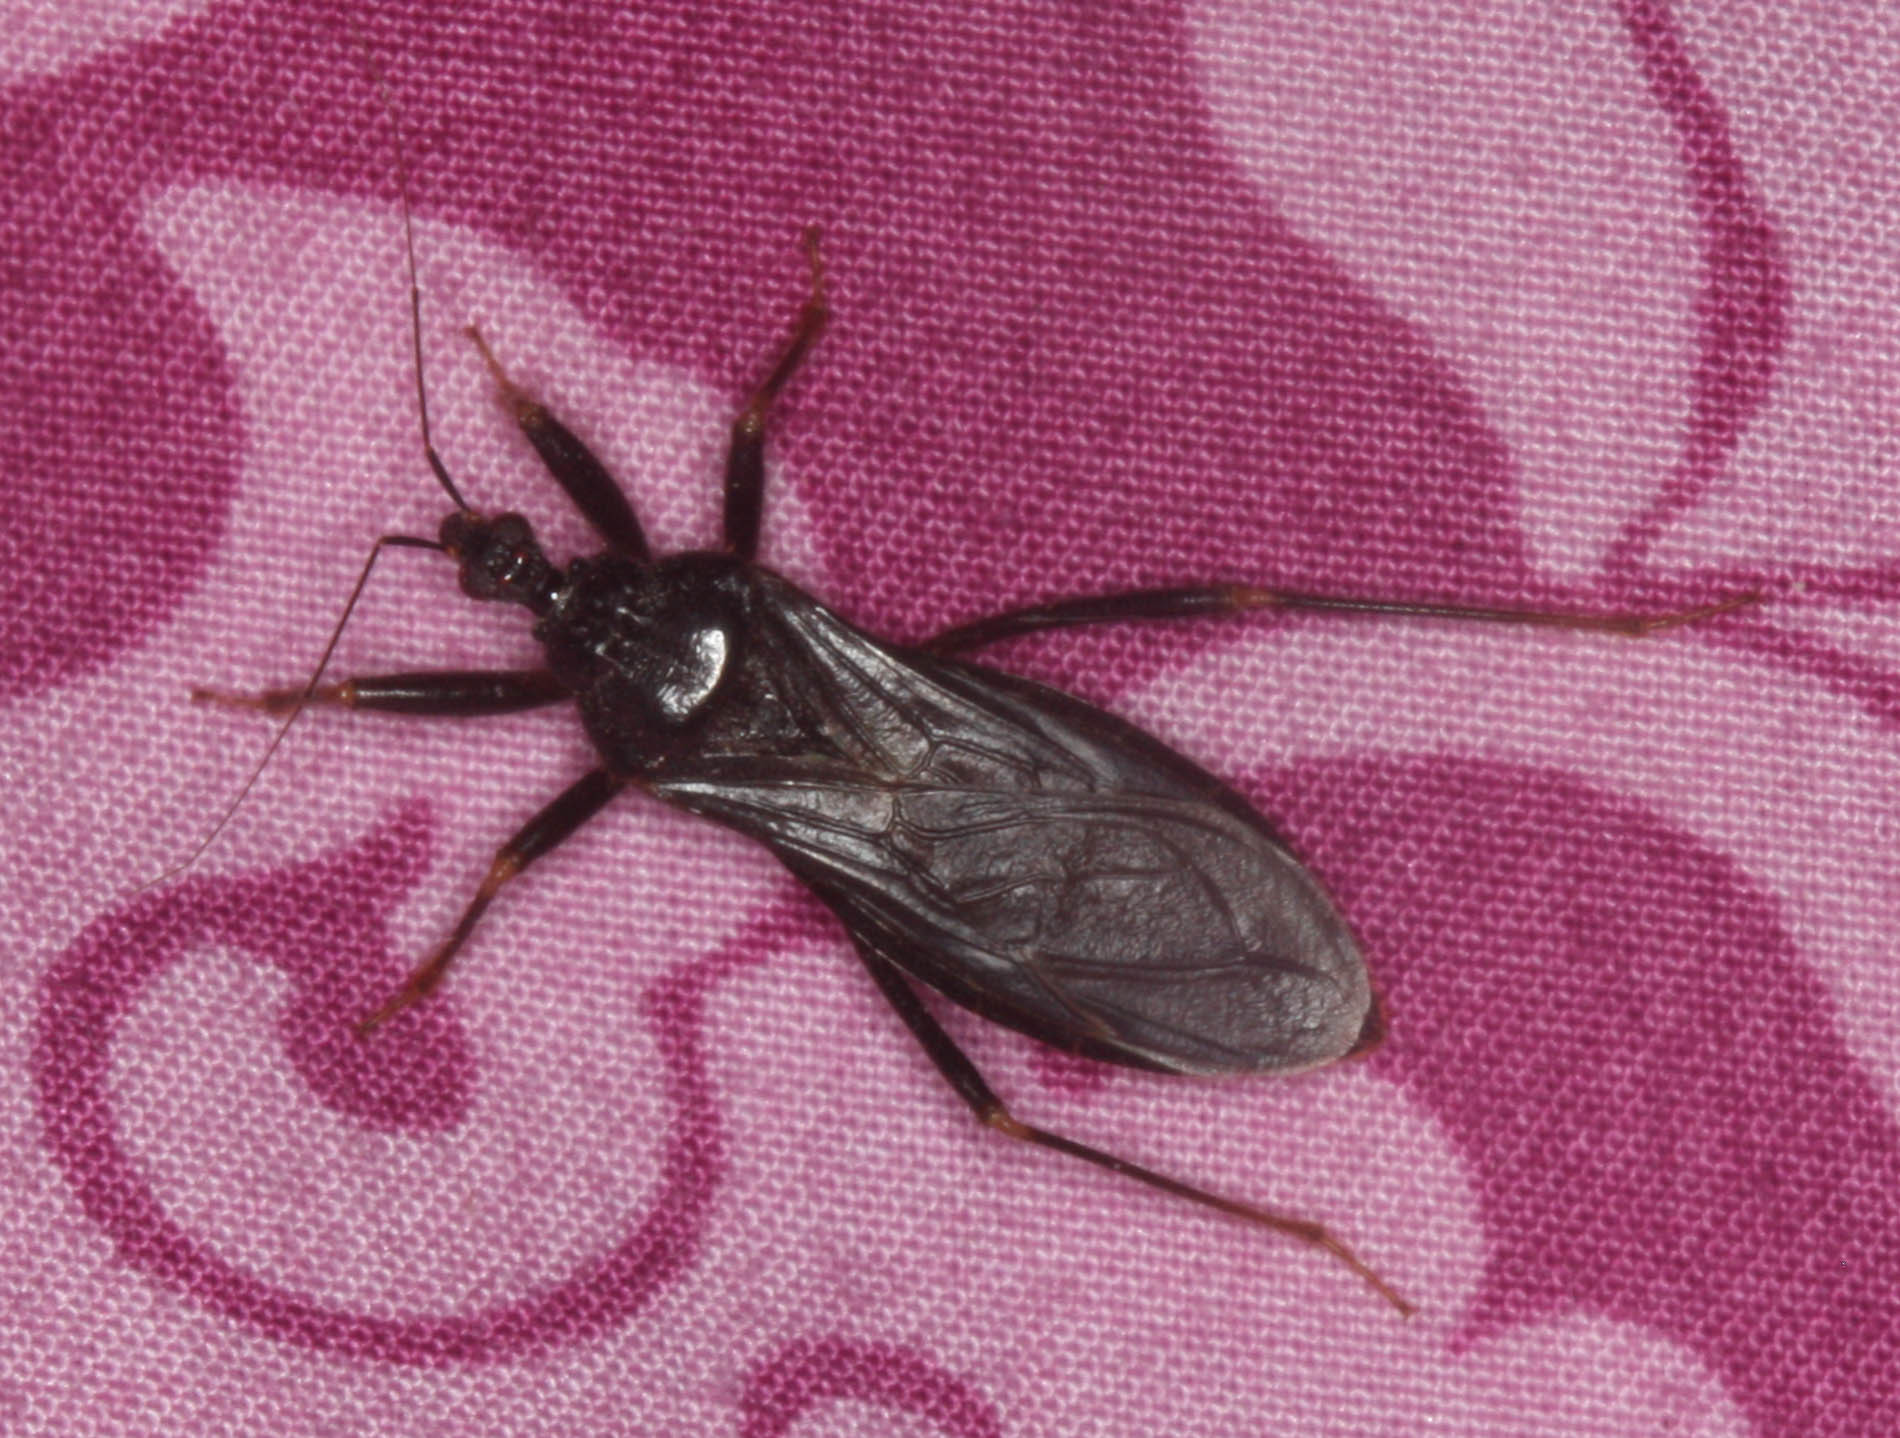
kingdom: Animalia
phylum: Arthropoda
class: Insecta
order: Hemiptera
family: Reduviidae
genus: Reduvius
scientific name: Reduvius personatus
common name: Masked hunter
